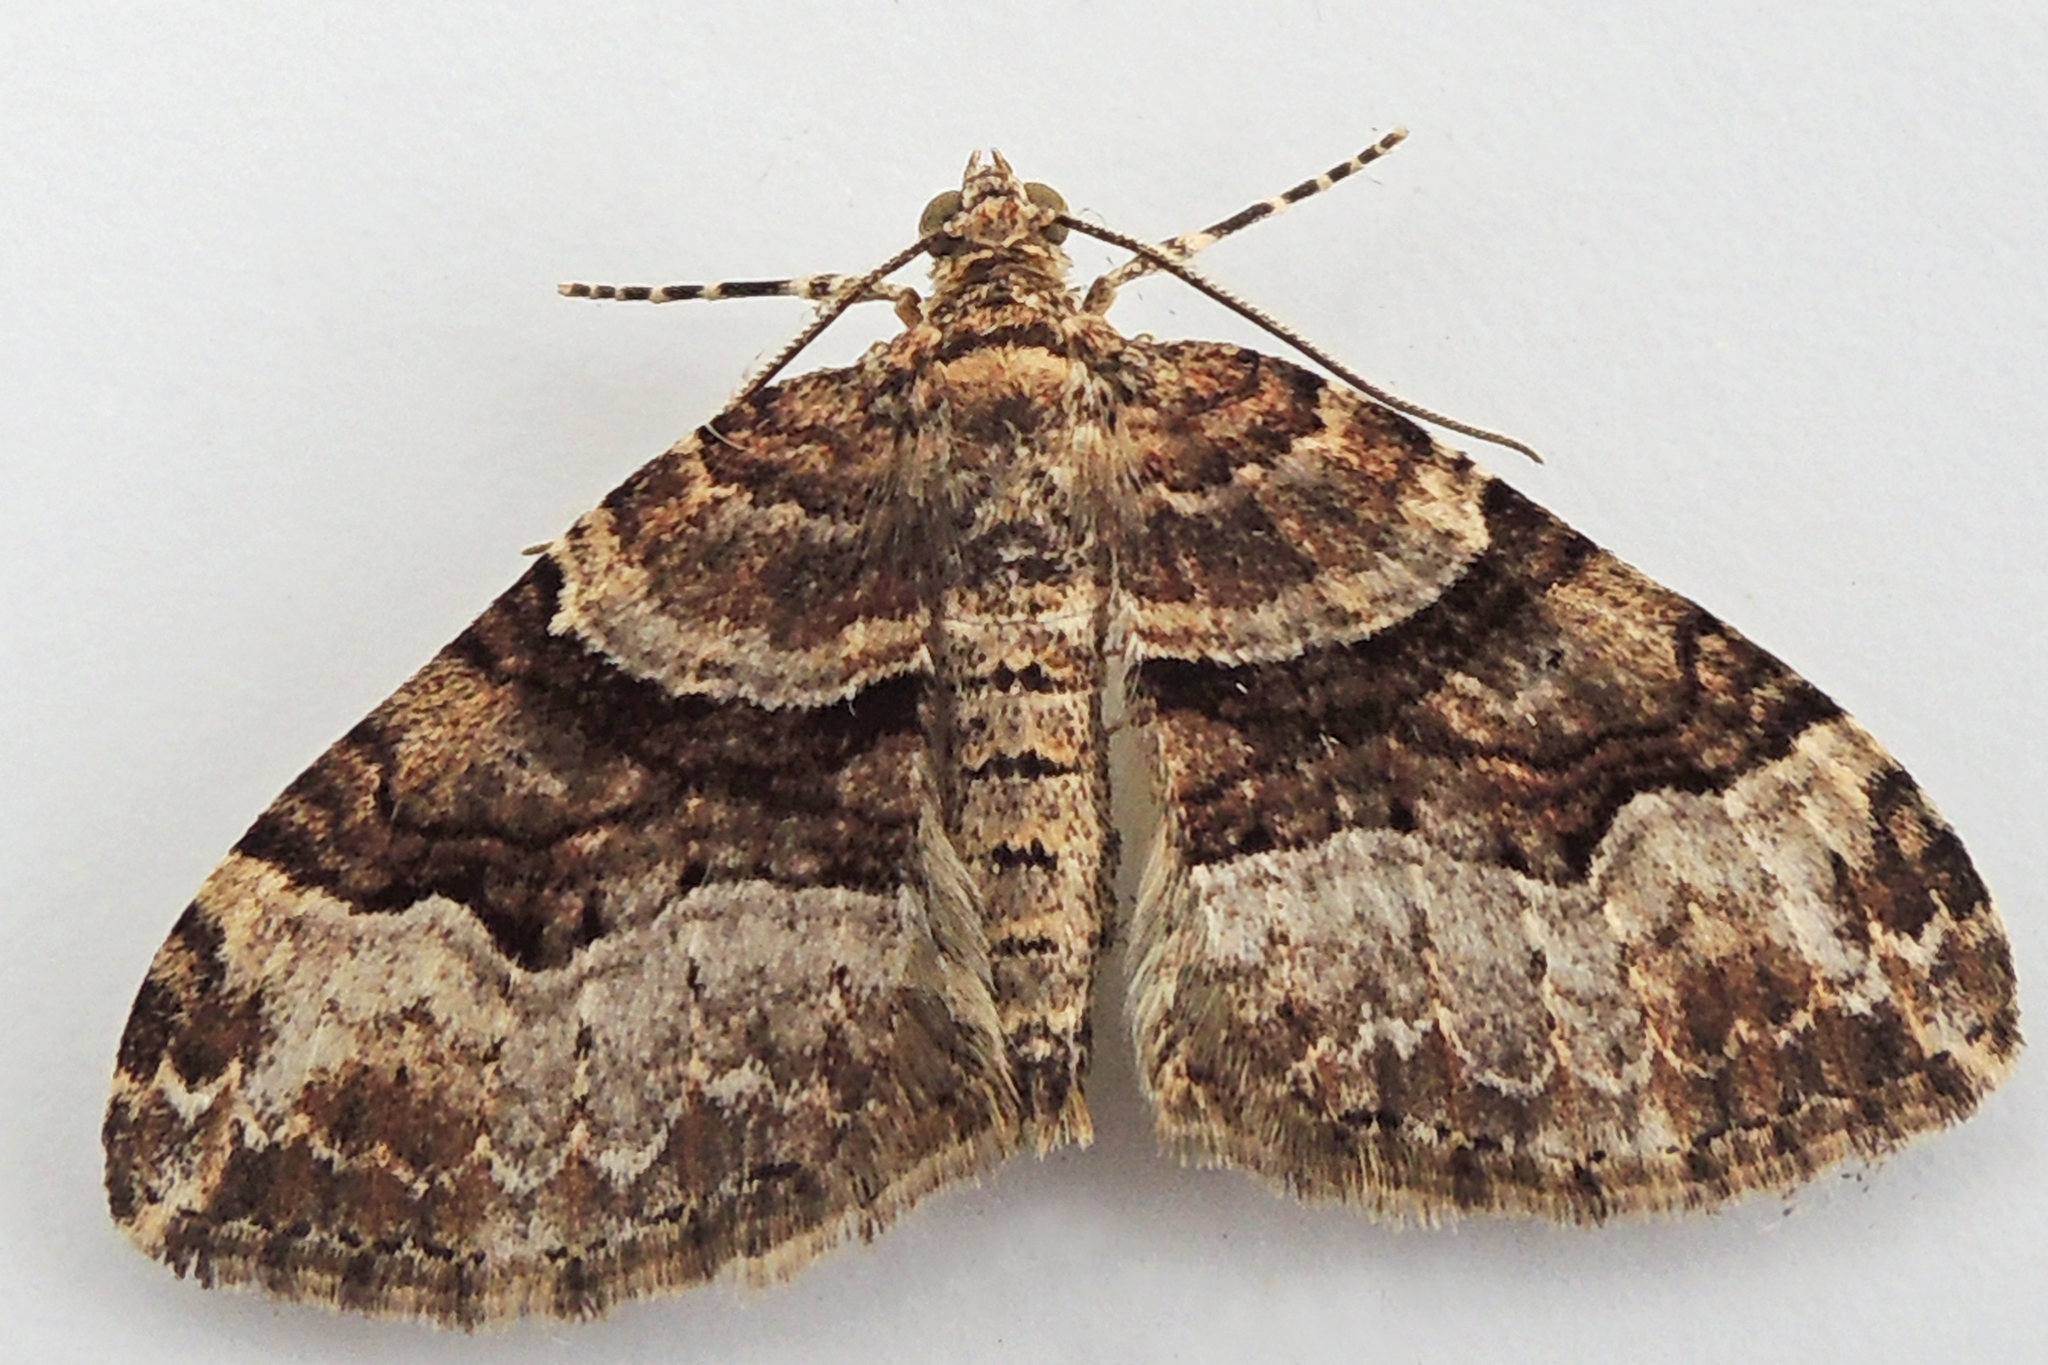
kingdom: Animalia
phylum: Arthropoda
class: Insecta
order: Lepidoptera
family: Geometridae
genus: Xanthorhoe
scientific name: Xanthorhoe lacustrata
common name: Toothed brown carpet
